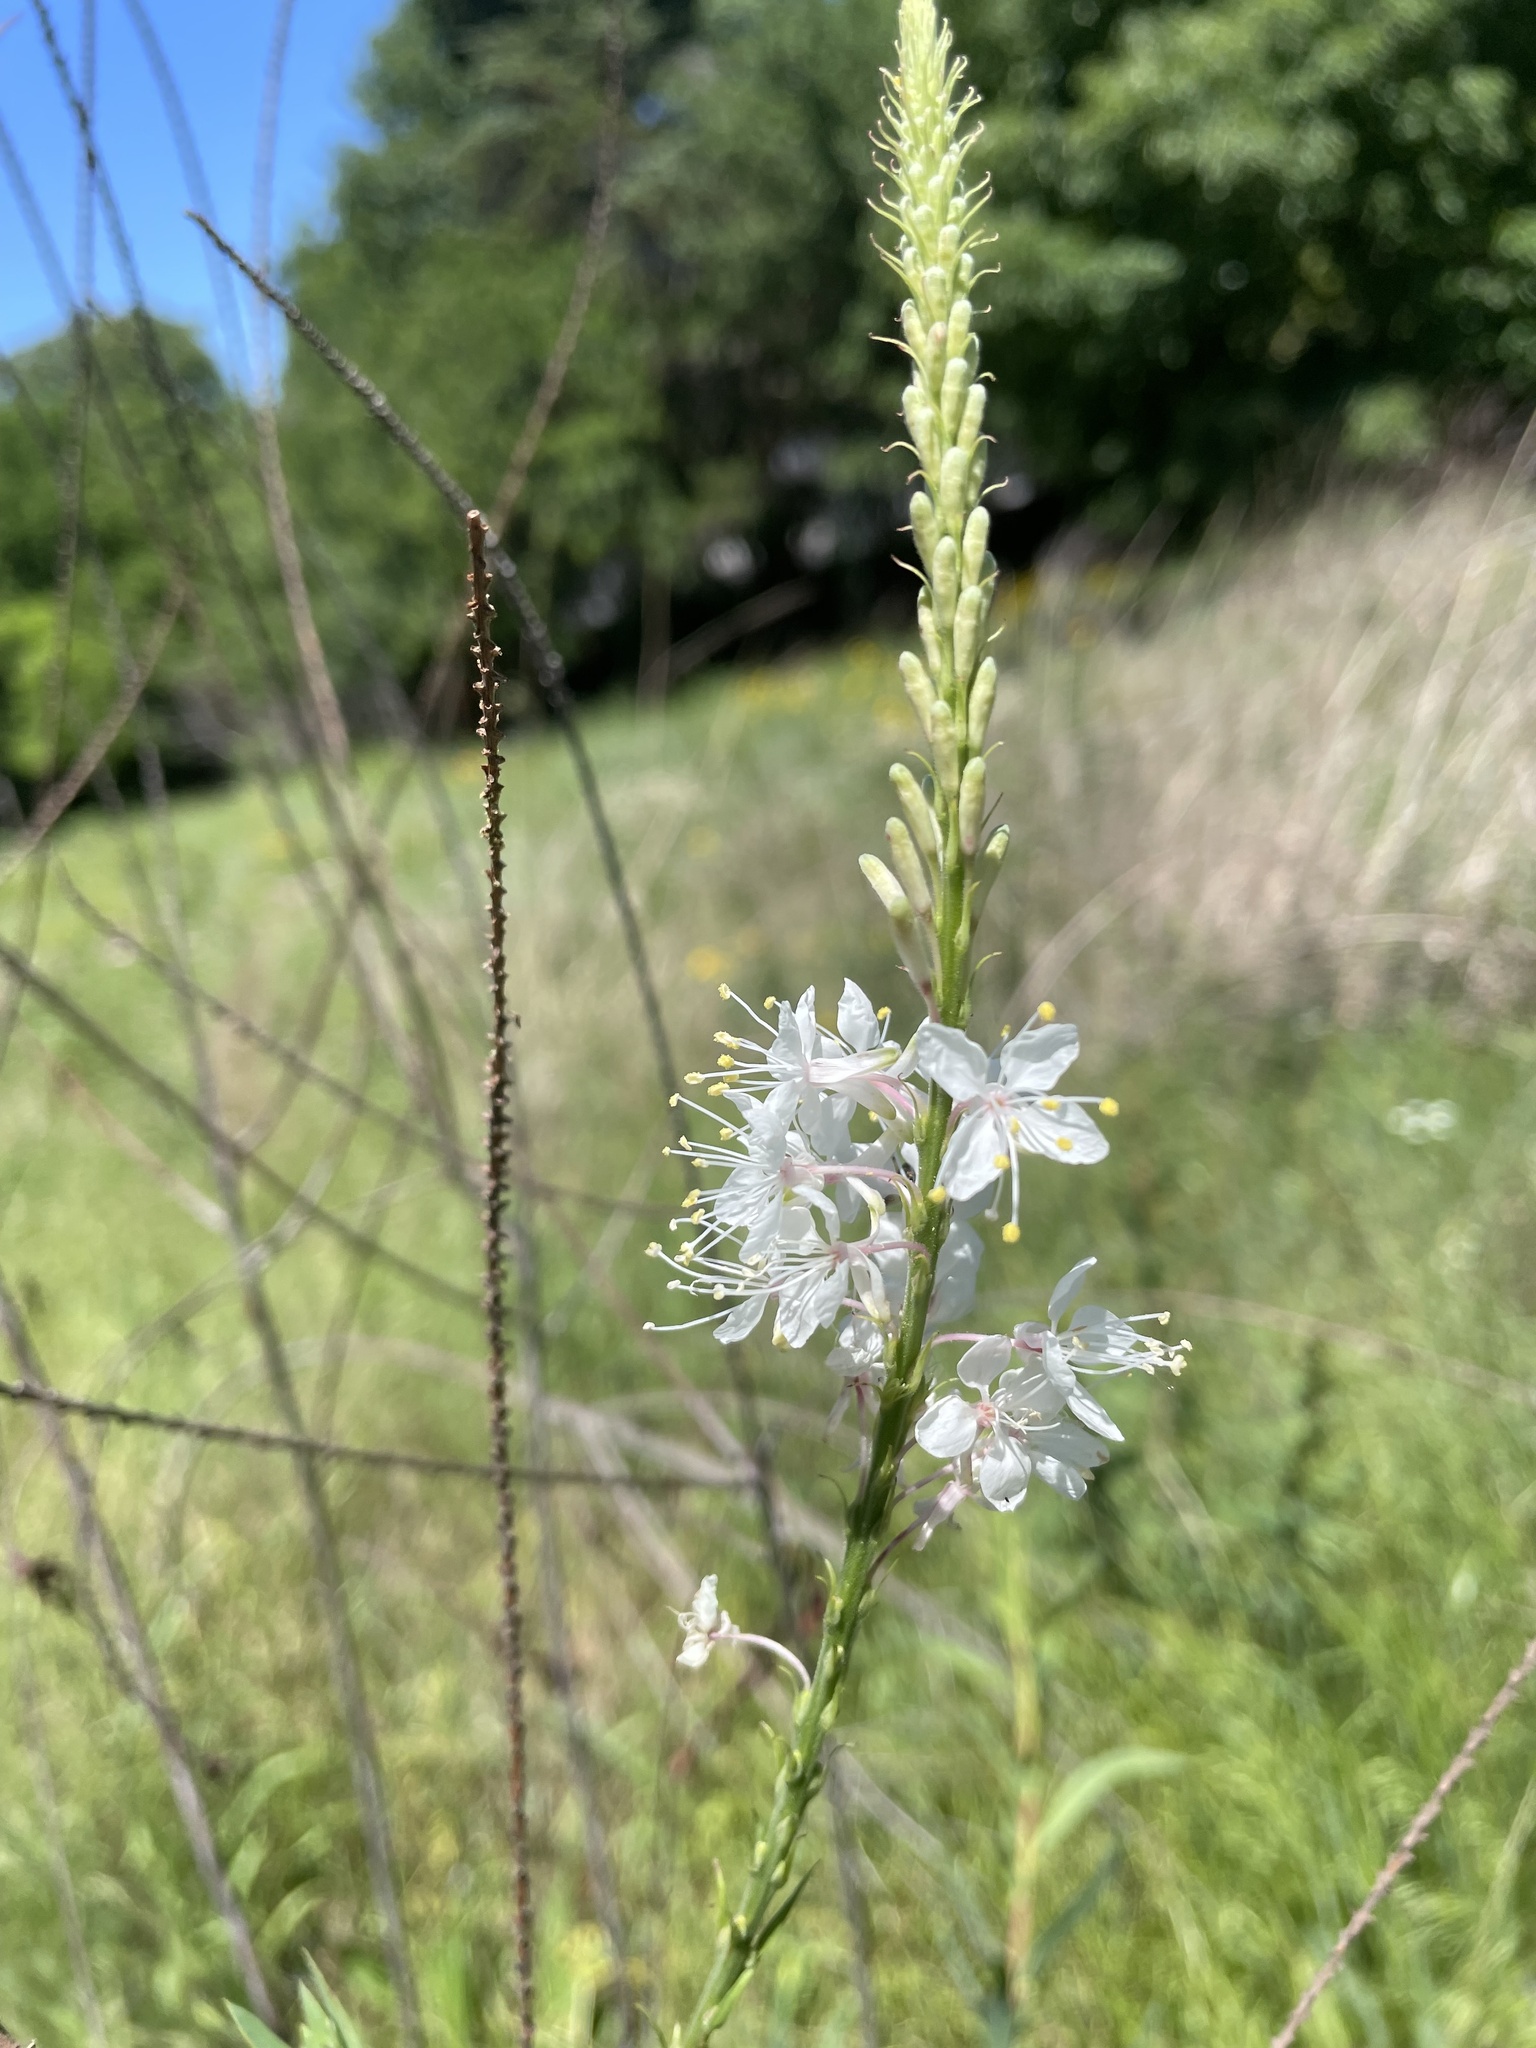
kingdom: Plantae
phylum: Tracheophyta
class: Magnoliopsida
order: Myrtales
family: Onagraceae
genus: Oenothera
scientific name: Oenothera glaucifolia
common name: False gaura
